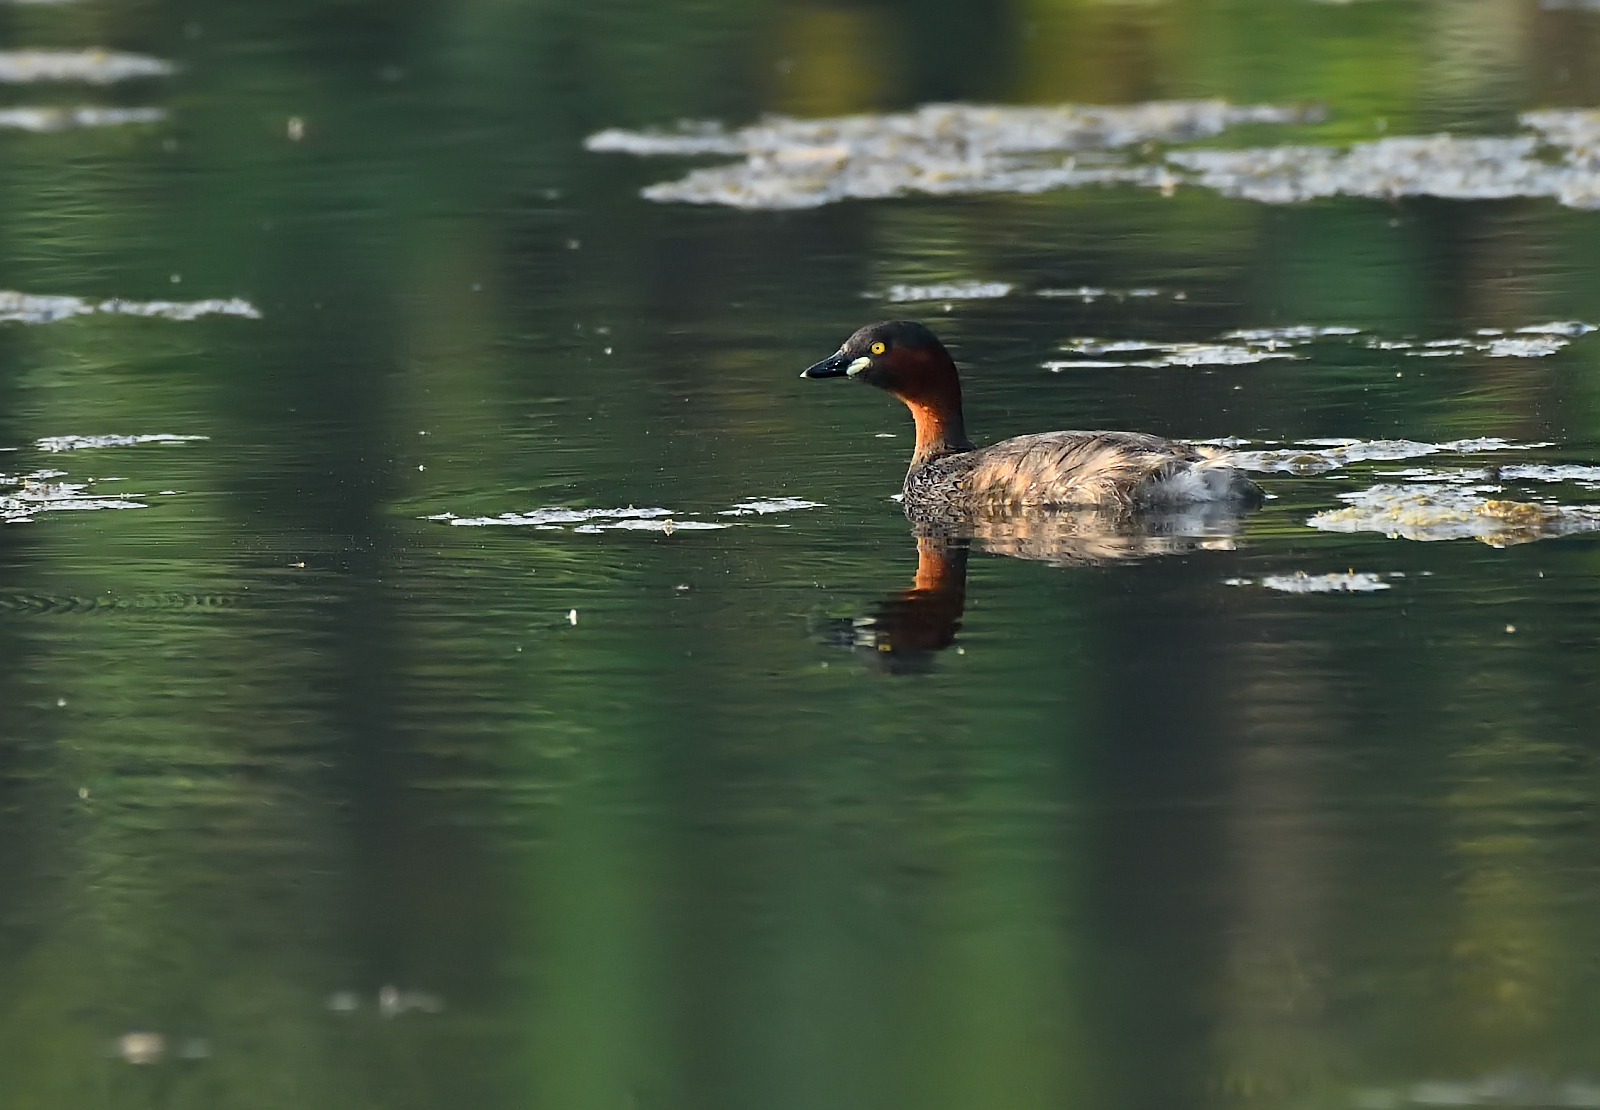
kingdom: Animalia
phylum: Chordata
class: Aves
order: Podicipediformes
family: Podicipedidae
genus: Tachybaptus
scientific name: Tachybaptus ruficollis
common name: Little grebe
